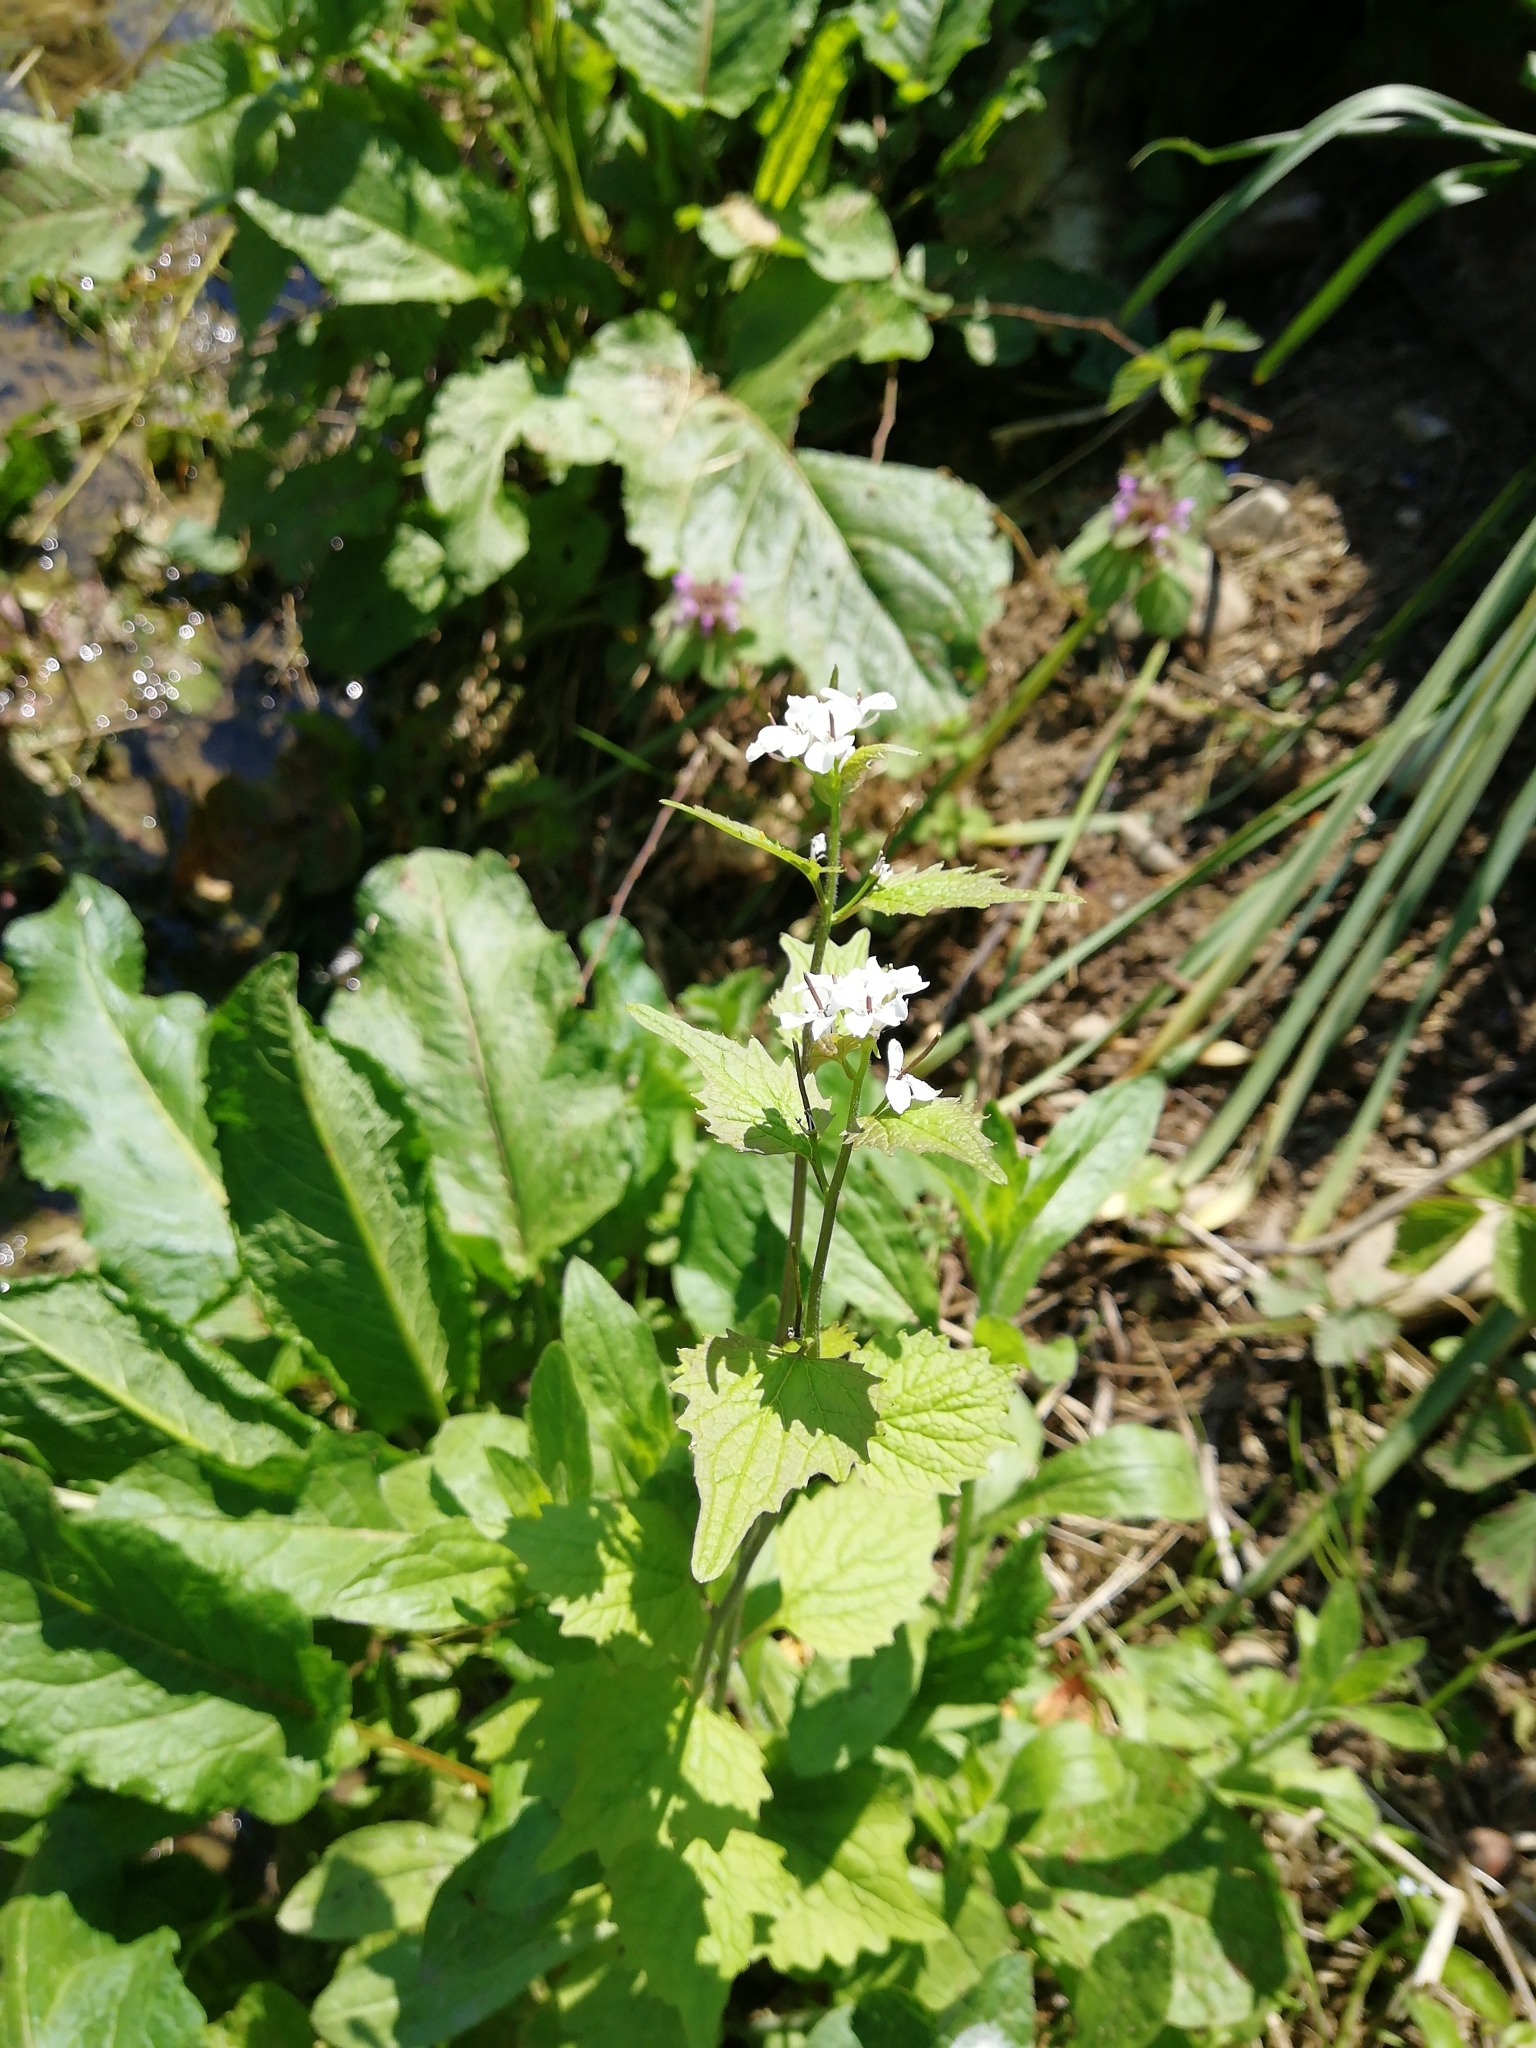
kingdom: Plantae
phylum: Tracheophyta
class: Magnoliopsida
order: Brassicales
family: Brassicaceae
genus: Alliaria
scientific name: Alliaria petiolata
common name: Garlic mustard
